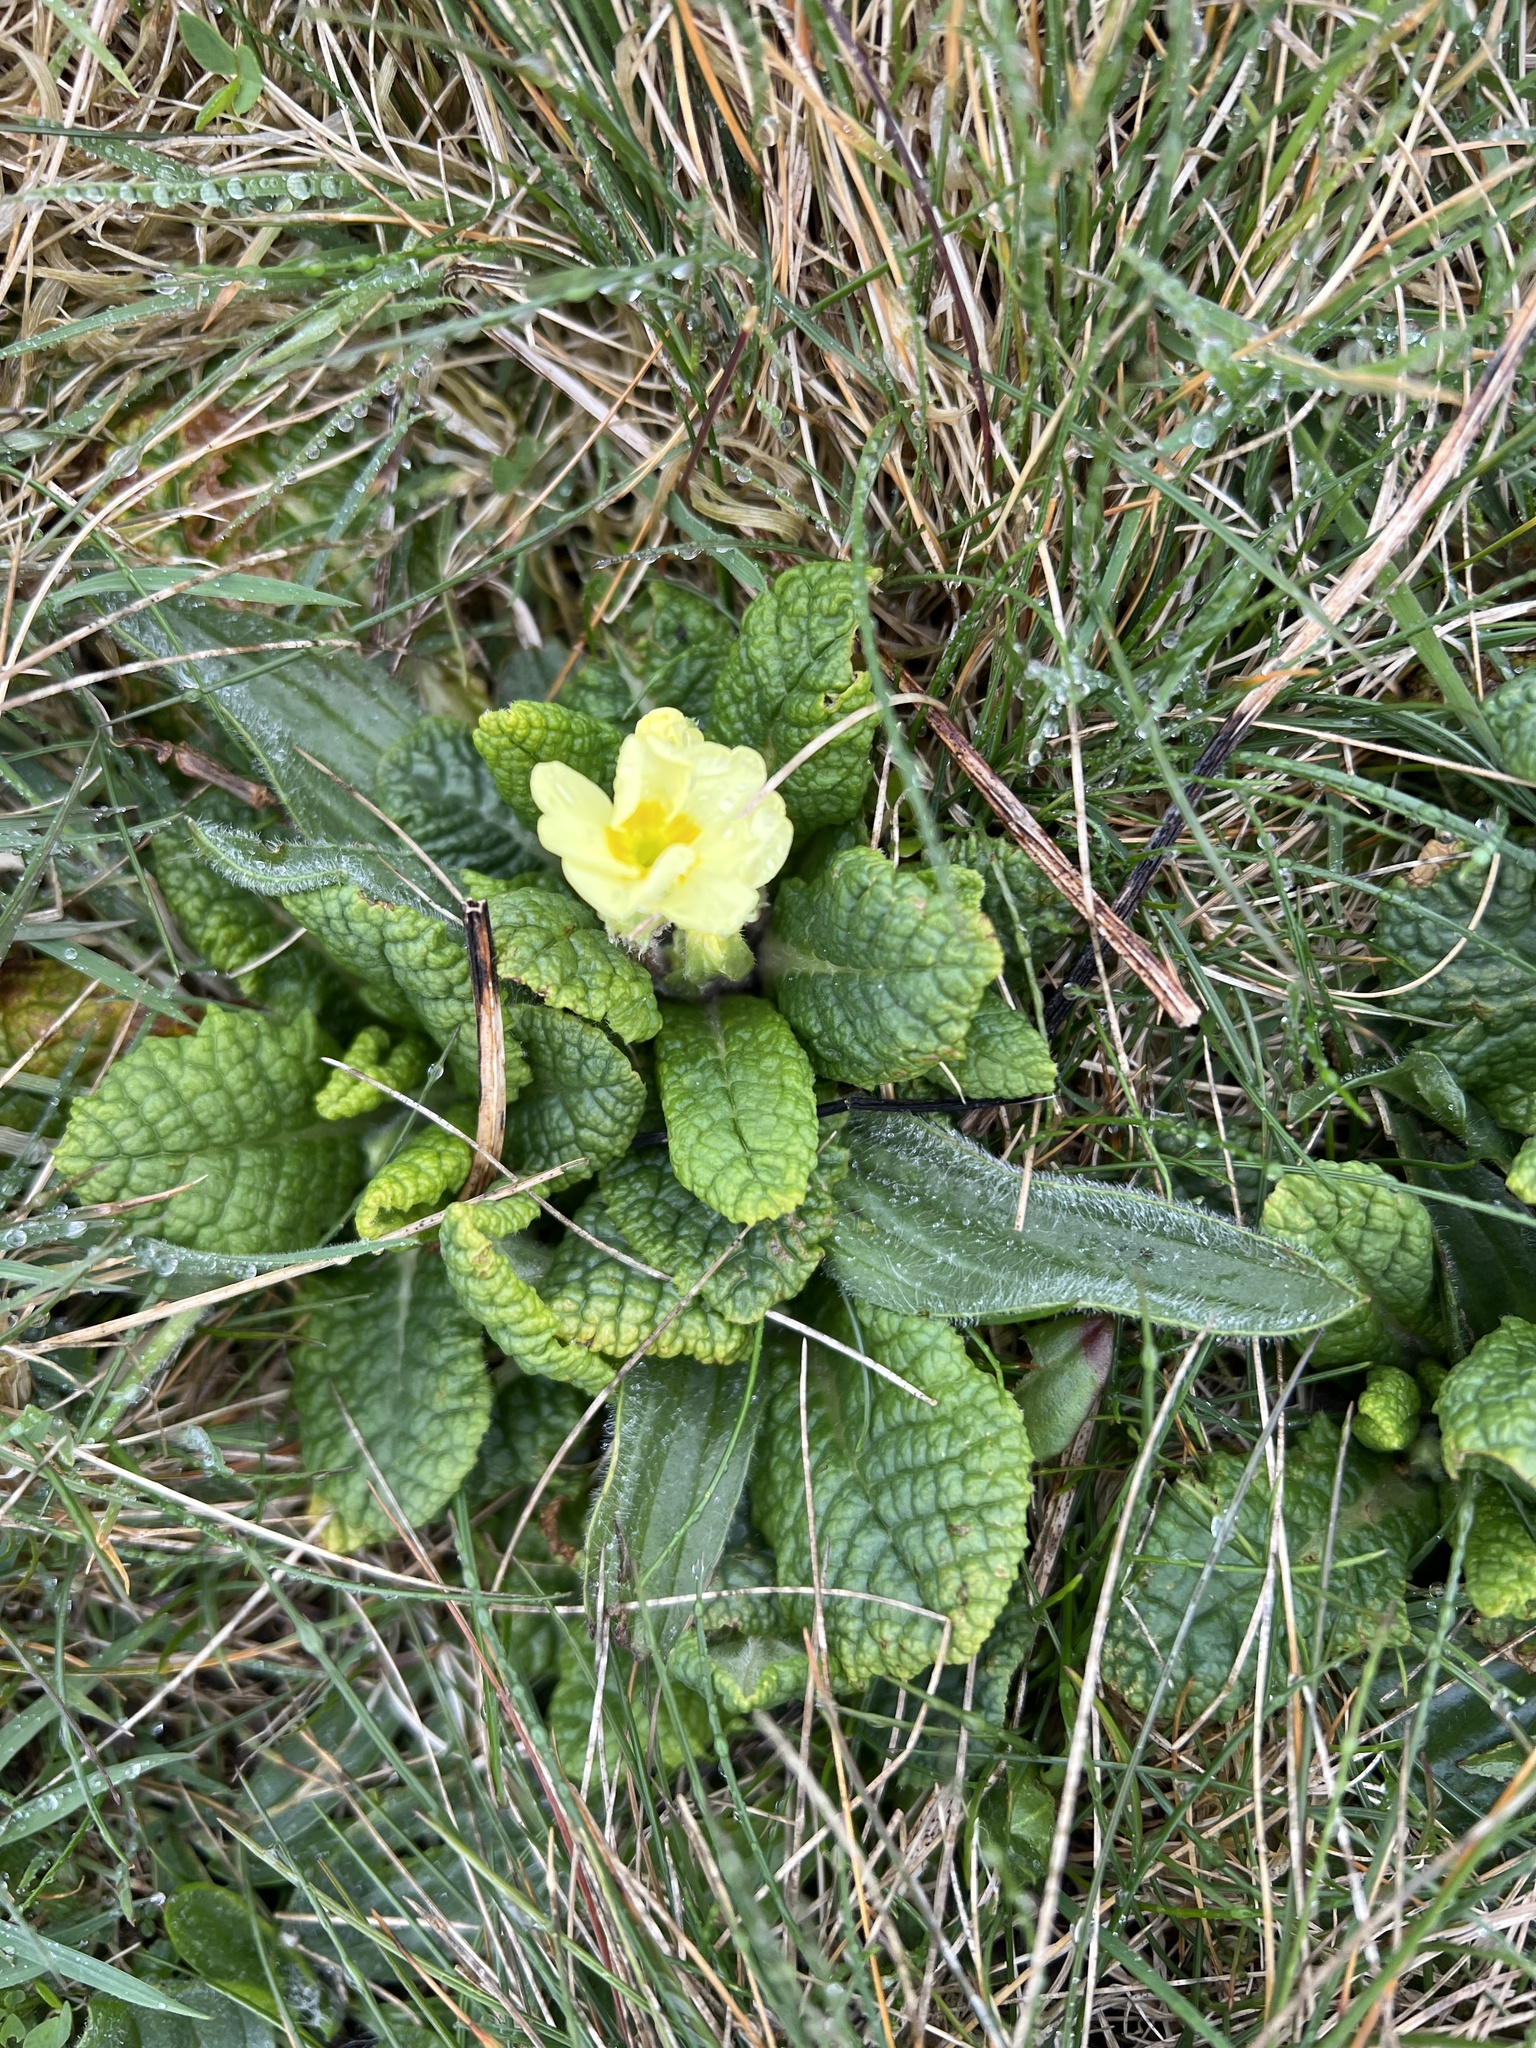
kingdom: Plantae
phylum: Tracheophyta
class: Magnoliopsida
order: Ericales
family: Primulaceae
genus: Primula
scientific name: Primula vulgaris
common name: Primrose
